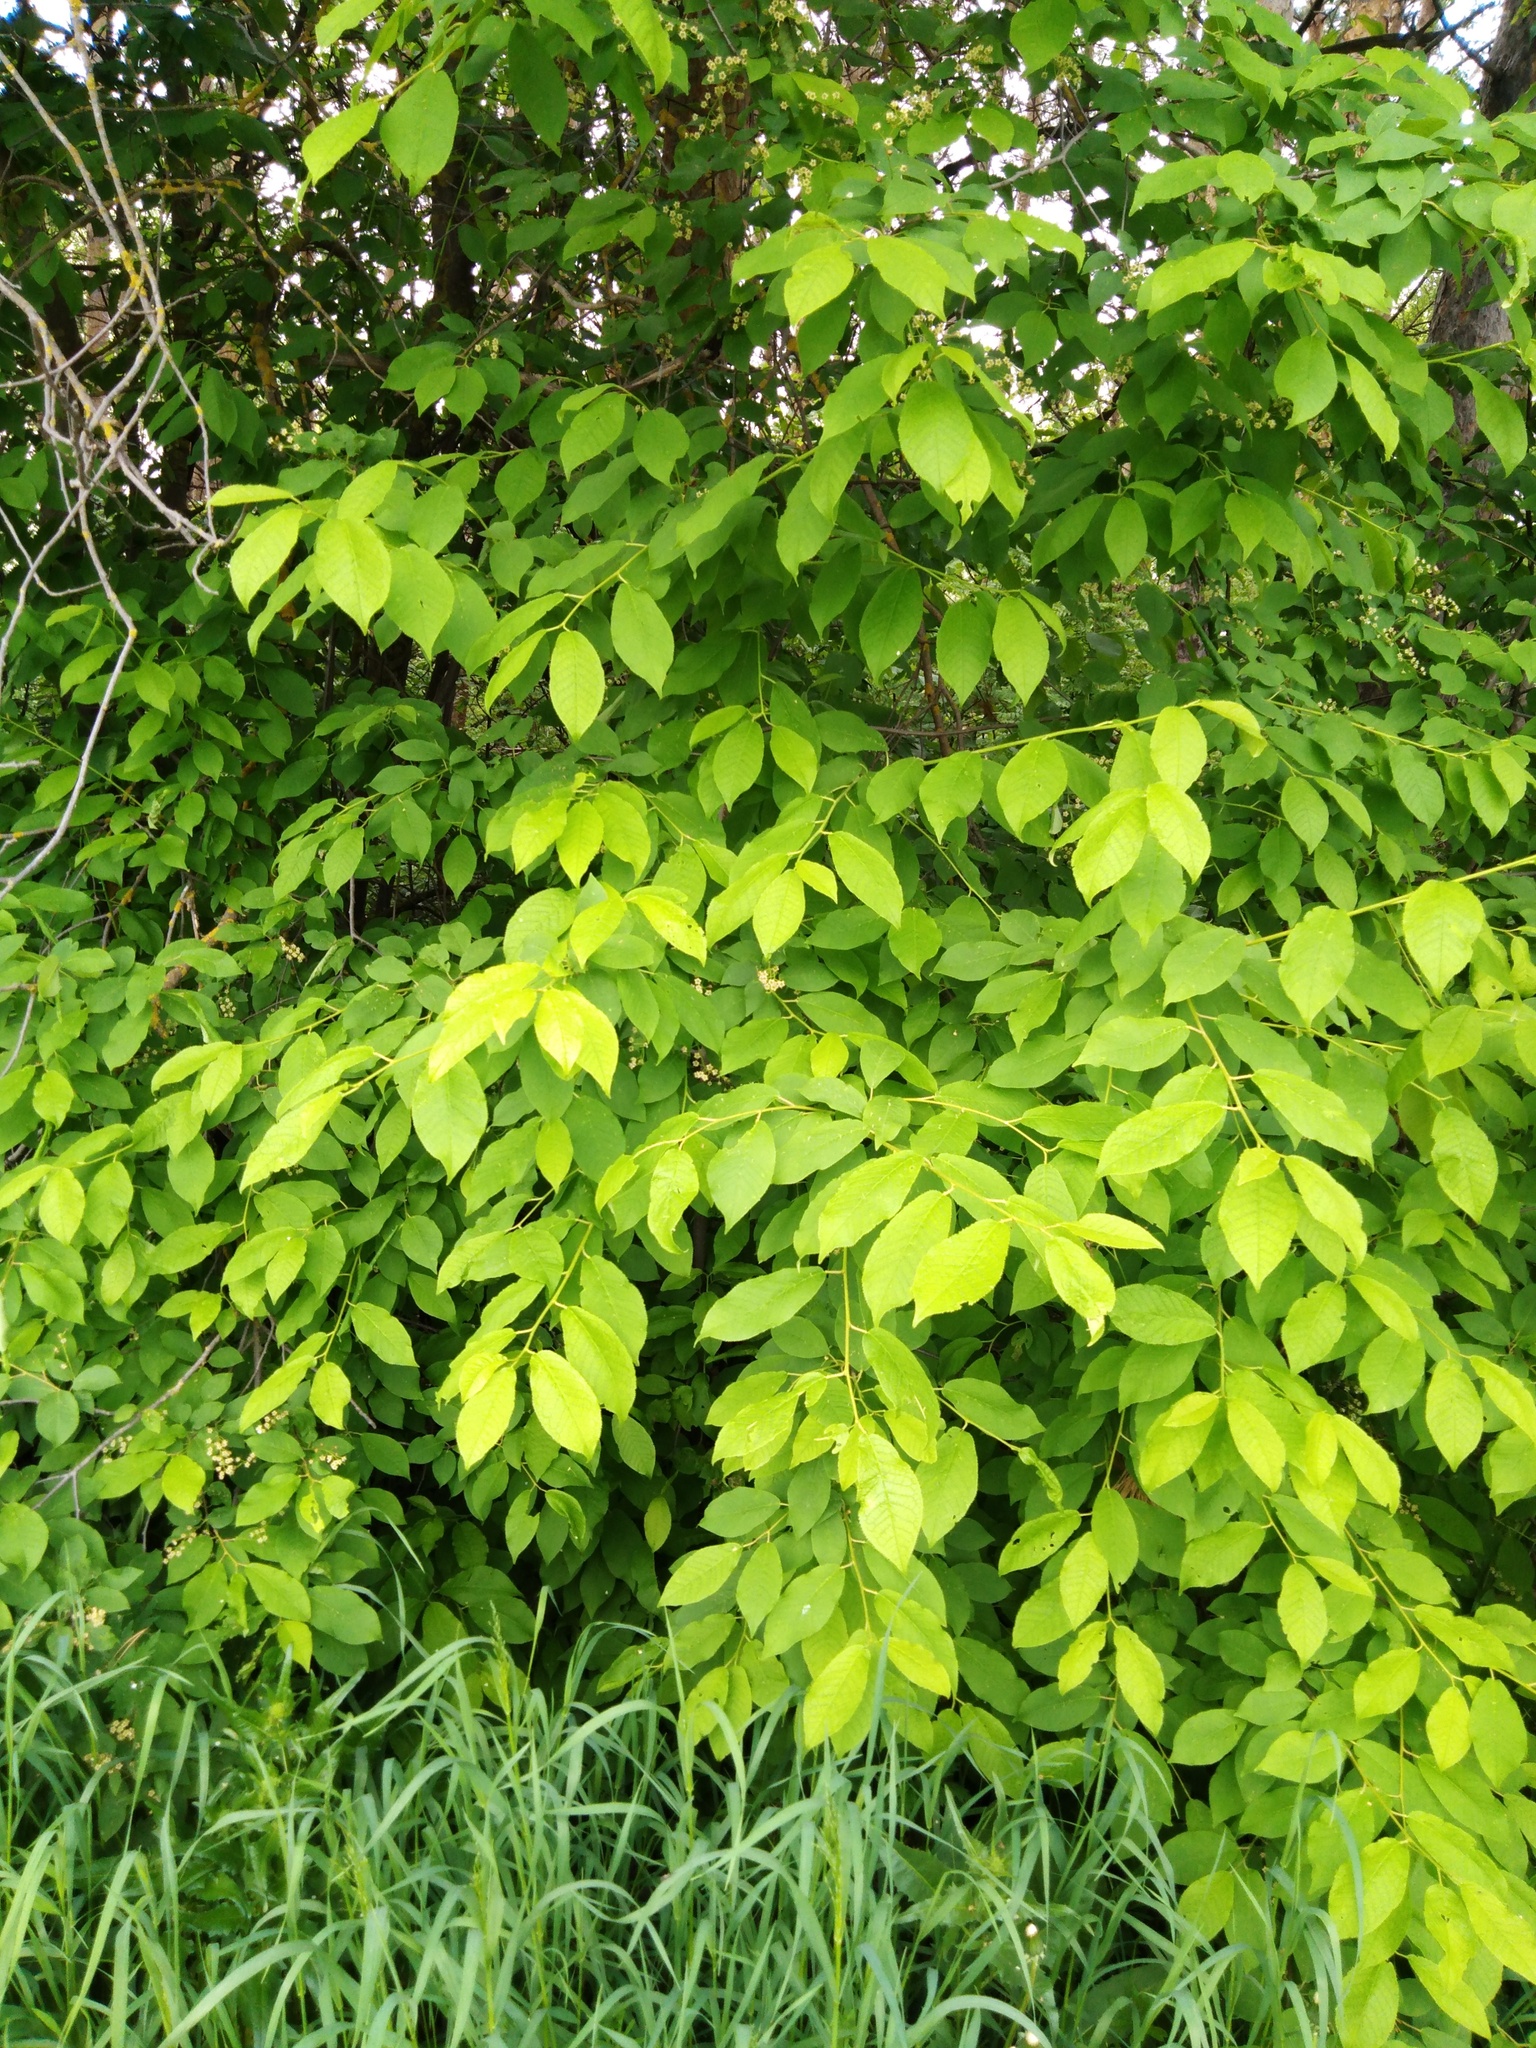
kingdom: Plantae
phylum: Tracheophyta
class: Magnoliopsida
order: Rosales
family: Rosaceae
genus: Prunus
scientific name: Prunus padus
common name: Bird cherry
